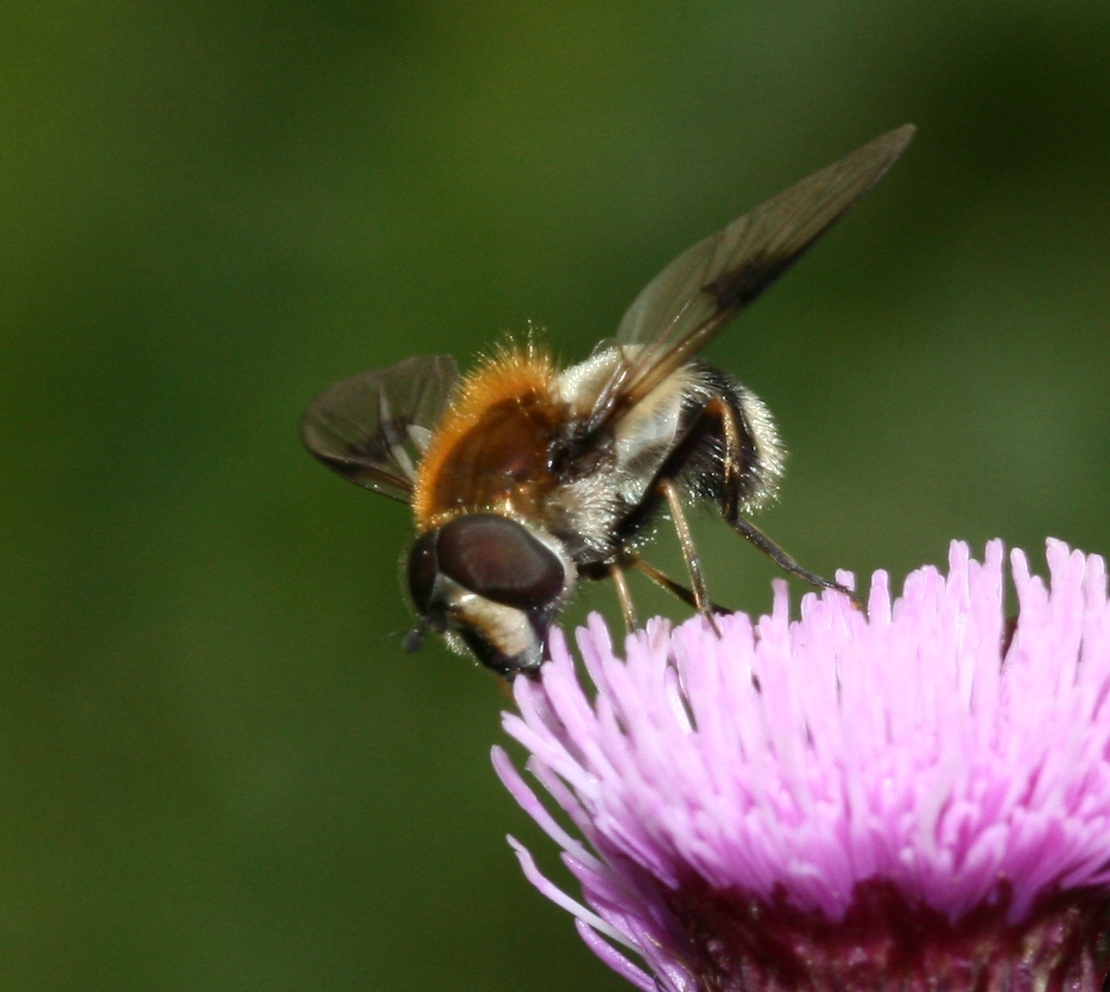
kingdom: Animalia
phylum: Arthropoda
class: Insecta
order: Diptera
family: Syrphidae
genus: Leucozona
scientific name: Leucozona lucorum
